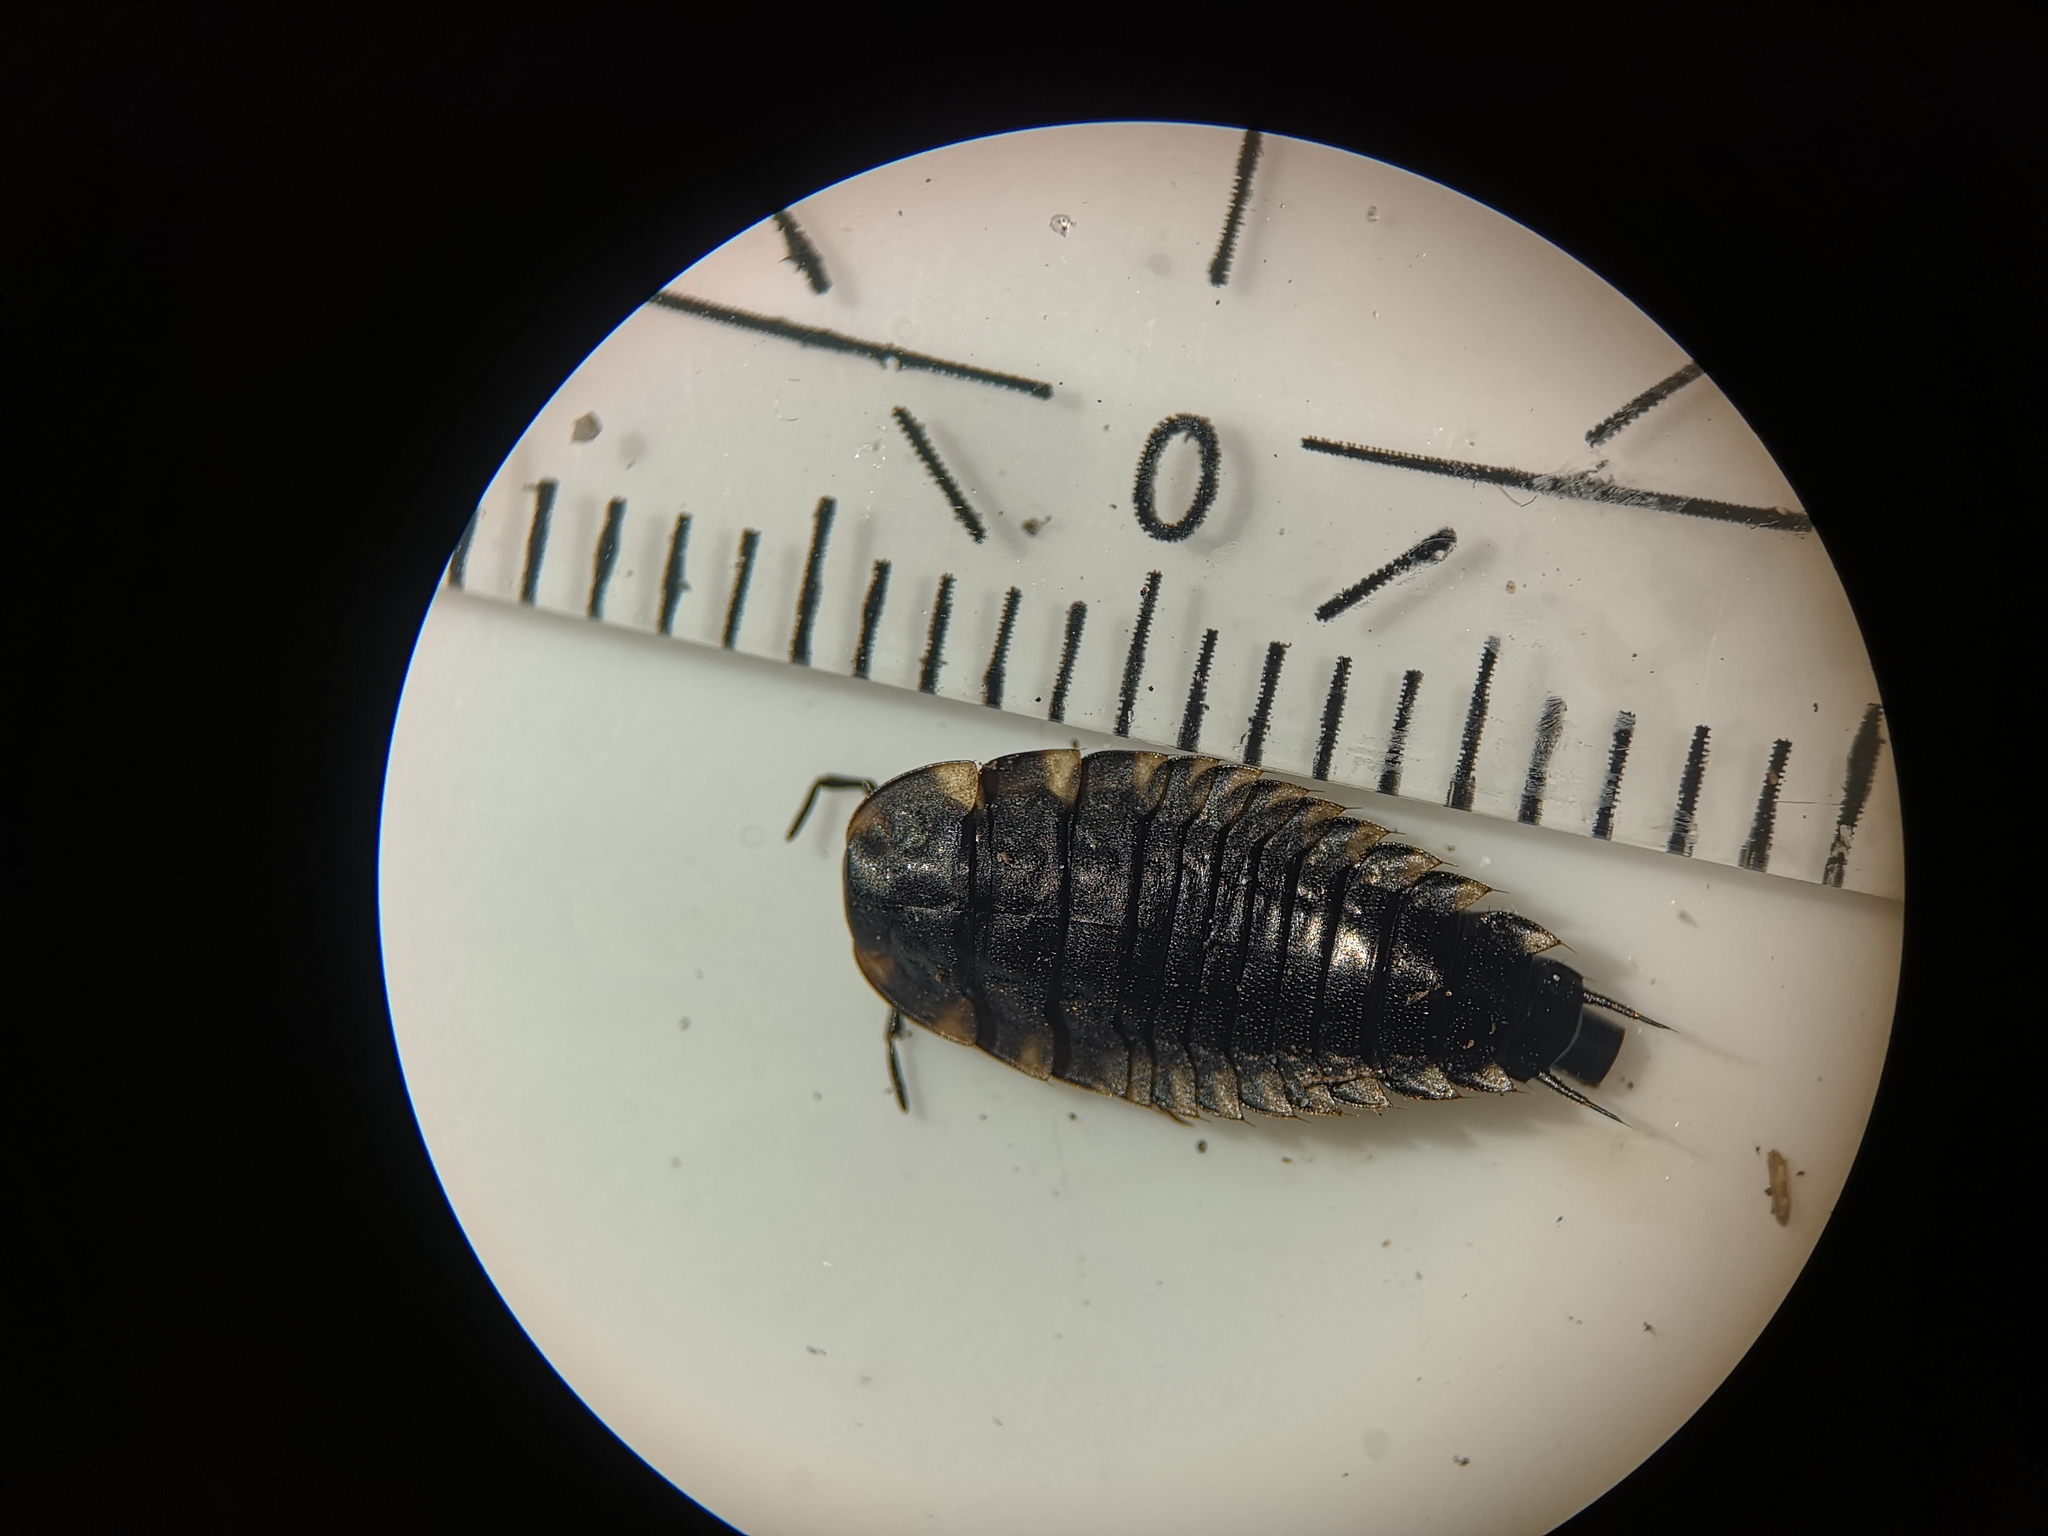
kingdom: Animalia
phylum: Arthropoda
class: Insecta
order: Coleoptera
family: Staphylinidae
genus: Oiceoptoma
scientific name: Oiceoptoma thoracicum
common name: Red-breasted carrion beetle
